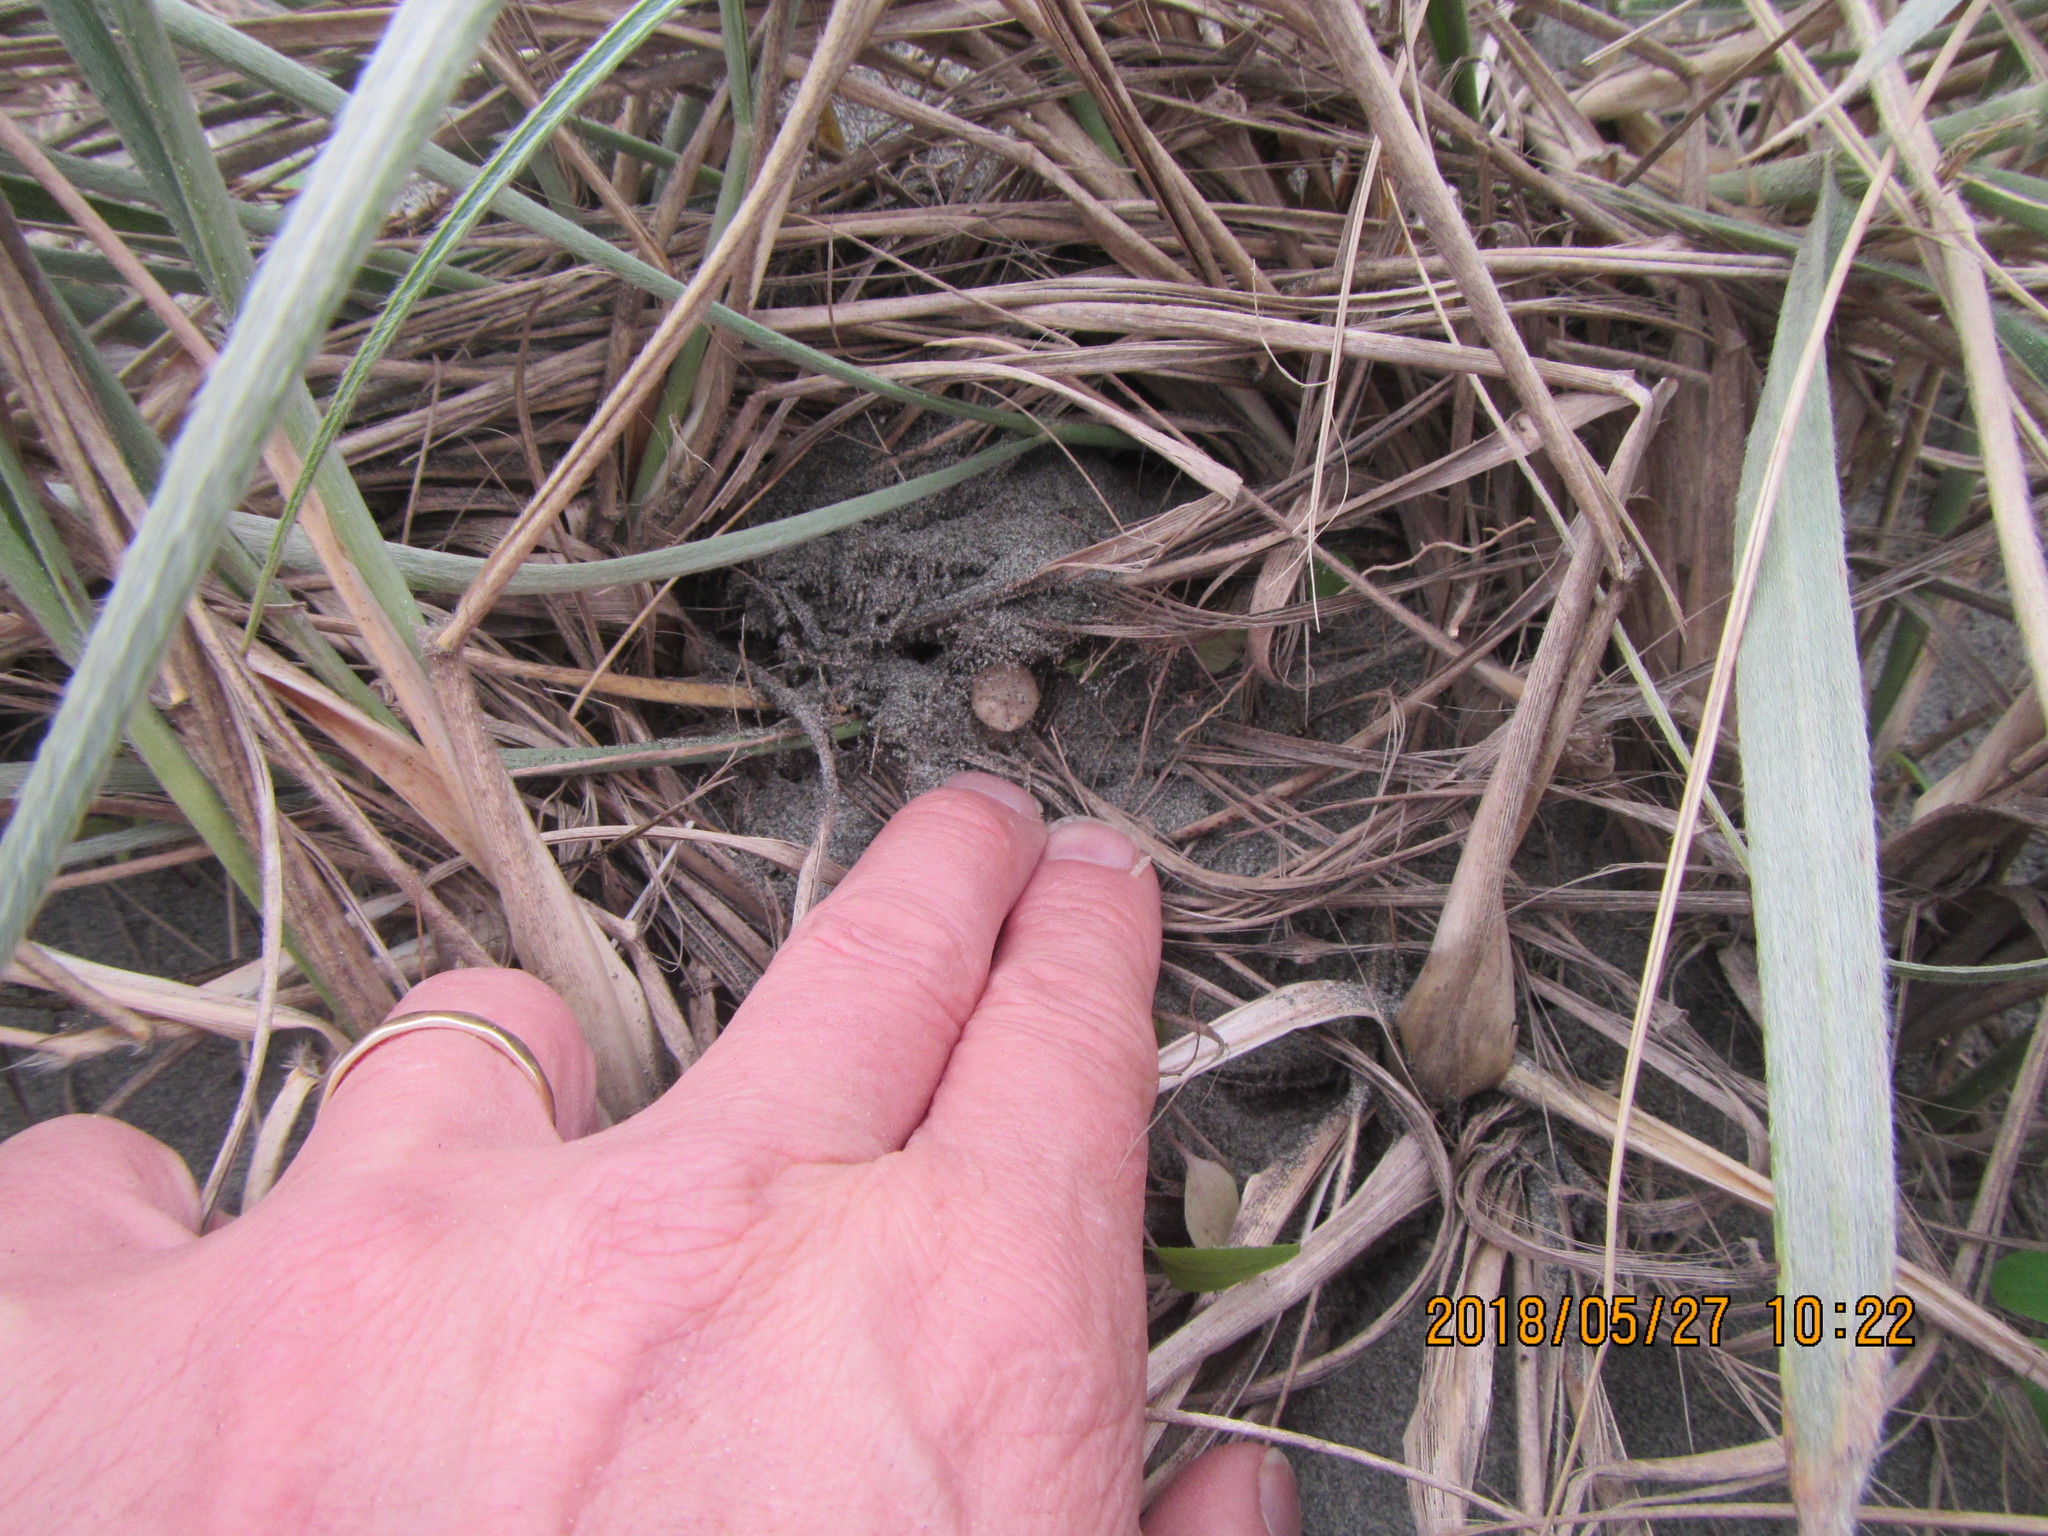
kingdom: Animalia
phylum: Arthropoda
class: Arachnida
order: Araneae
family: Thomisidae
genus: Sidymella
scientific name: Sidymella trapezia
